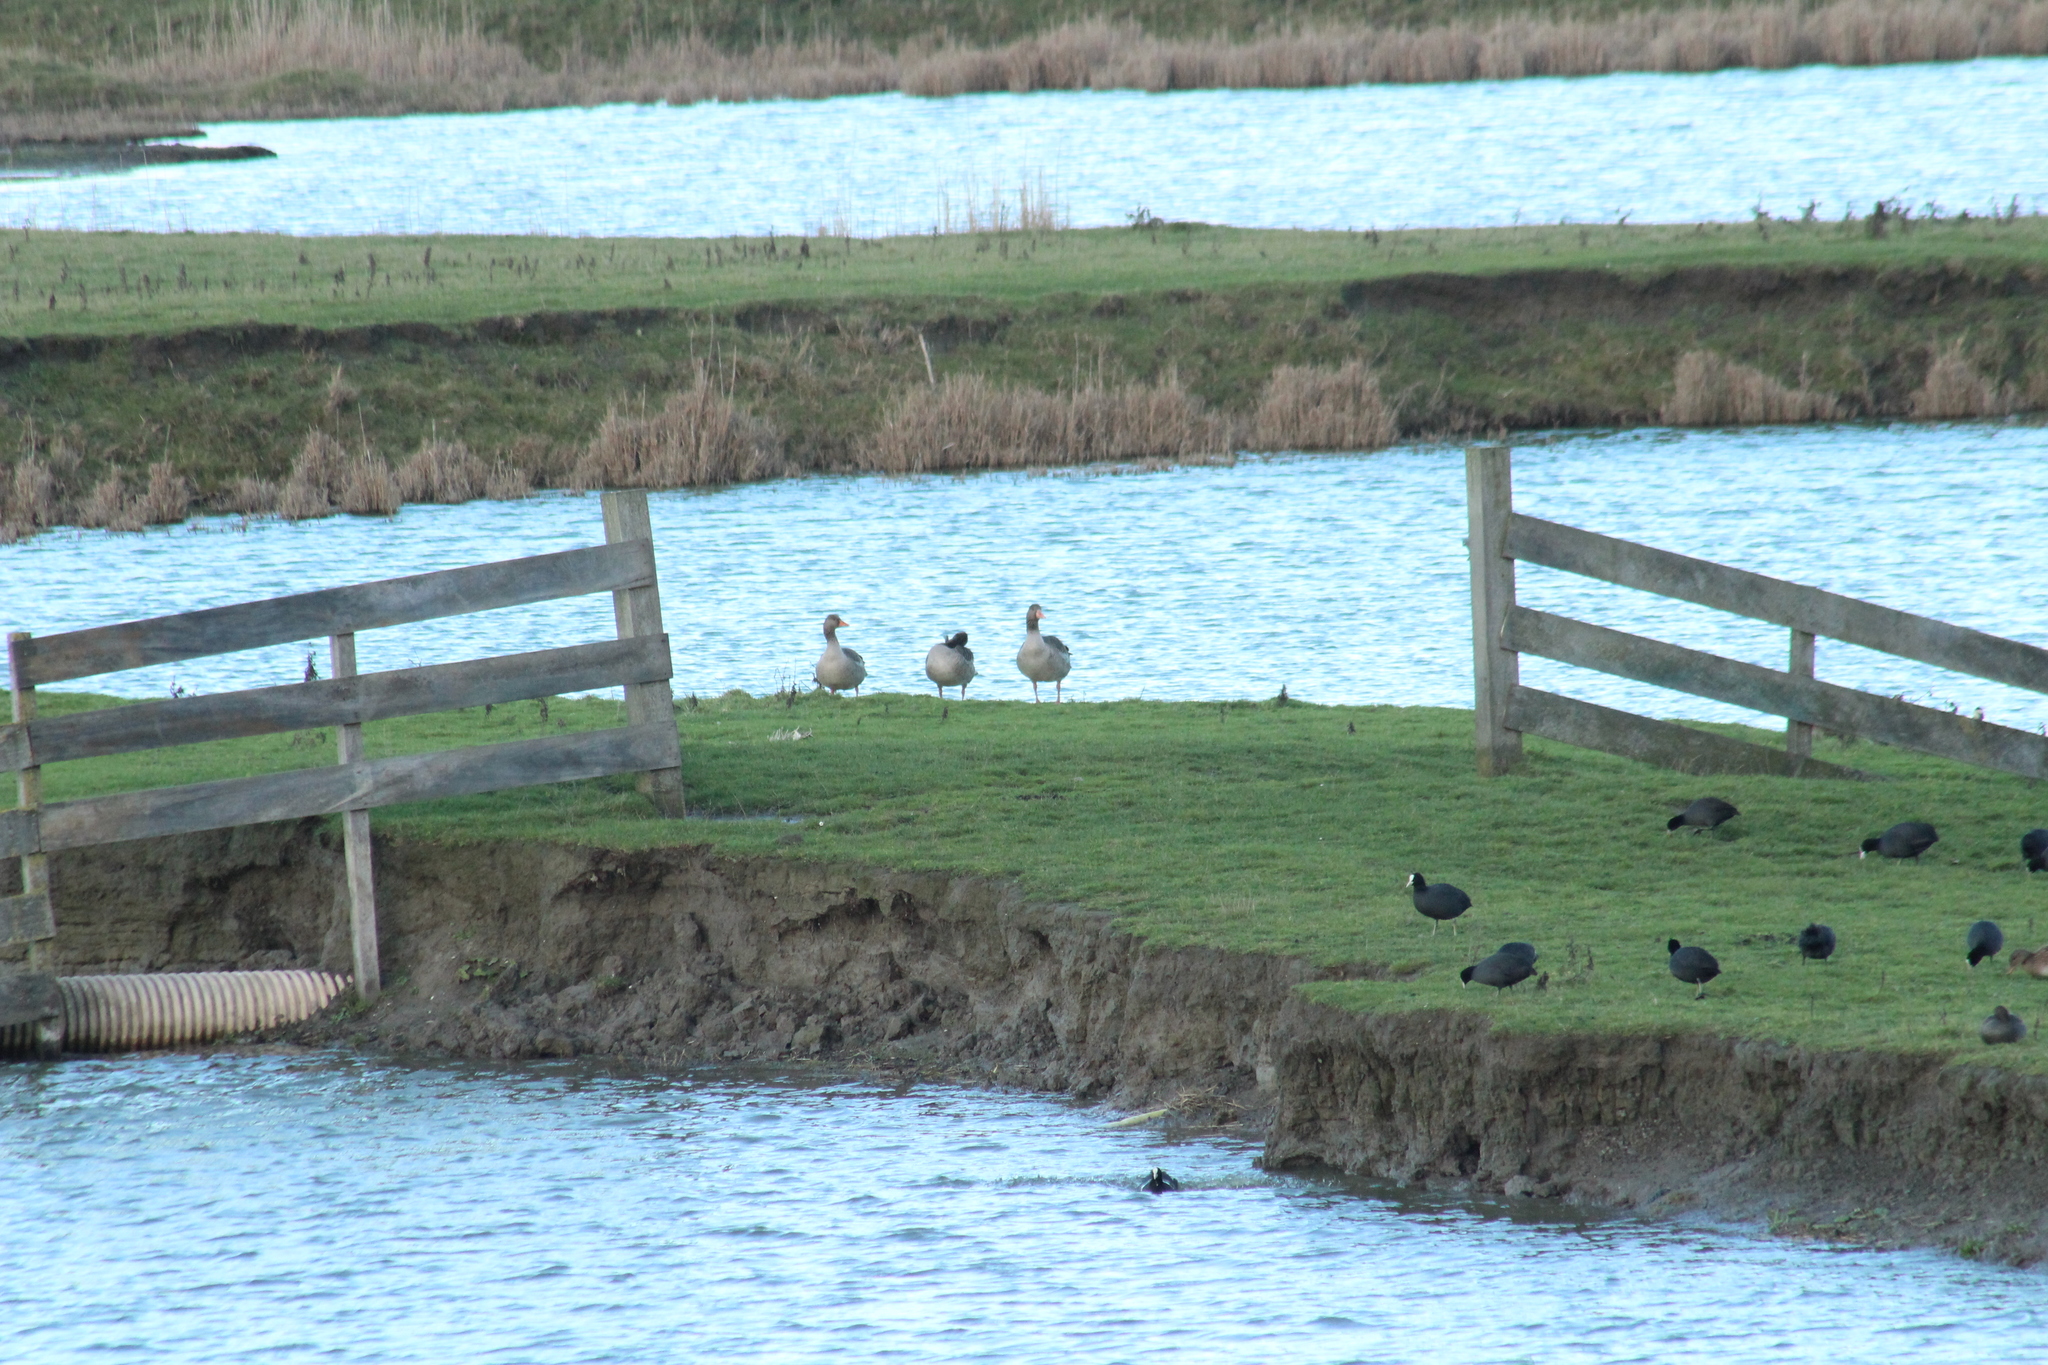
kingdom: Animalia
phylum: Chordata
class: Aves
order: Anseriformes
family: Anatidae
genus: Anser
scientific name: Anser anser
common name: Greylag goose
